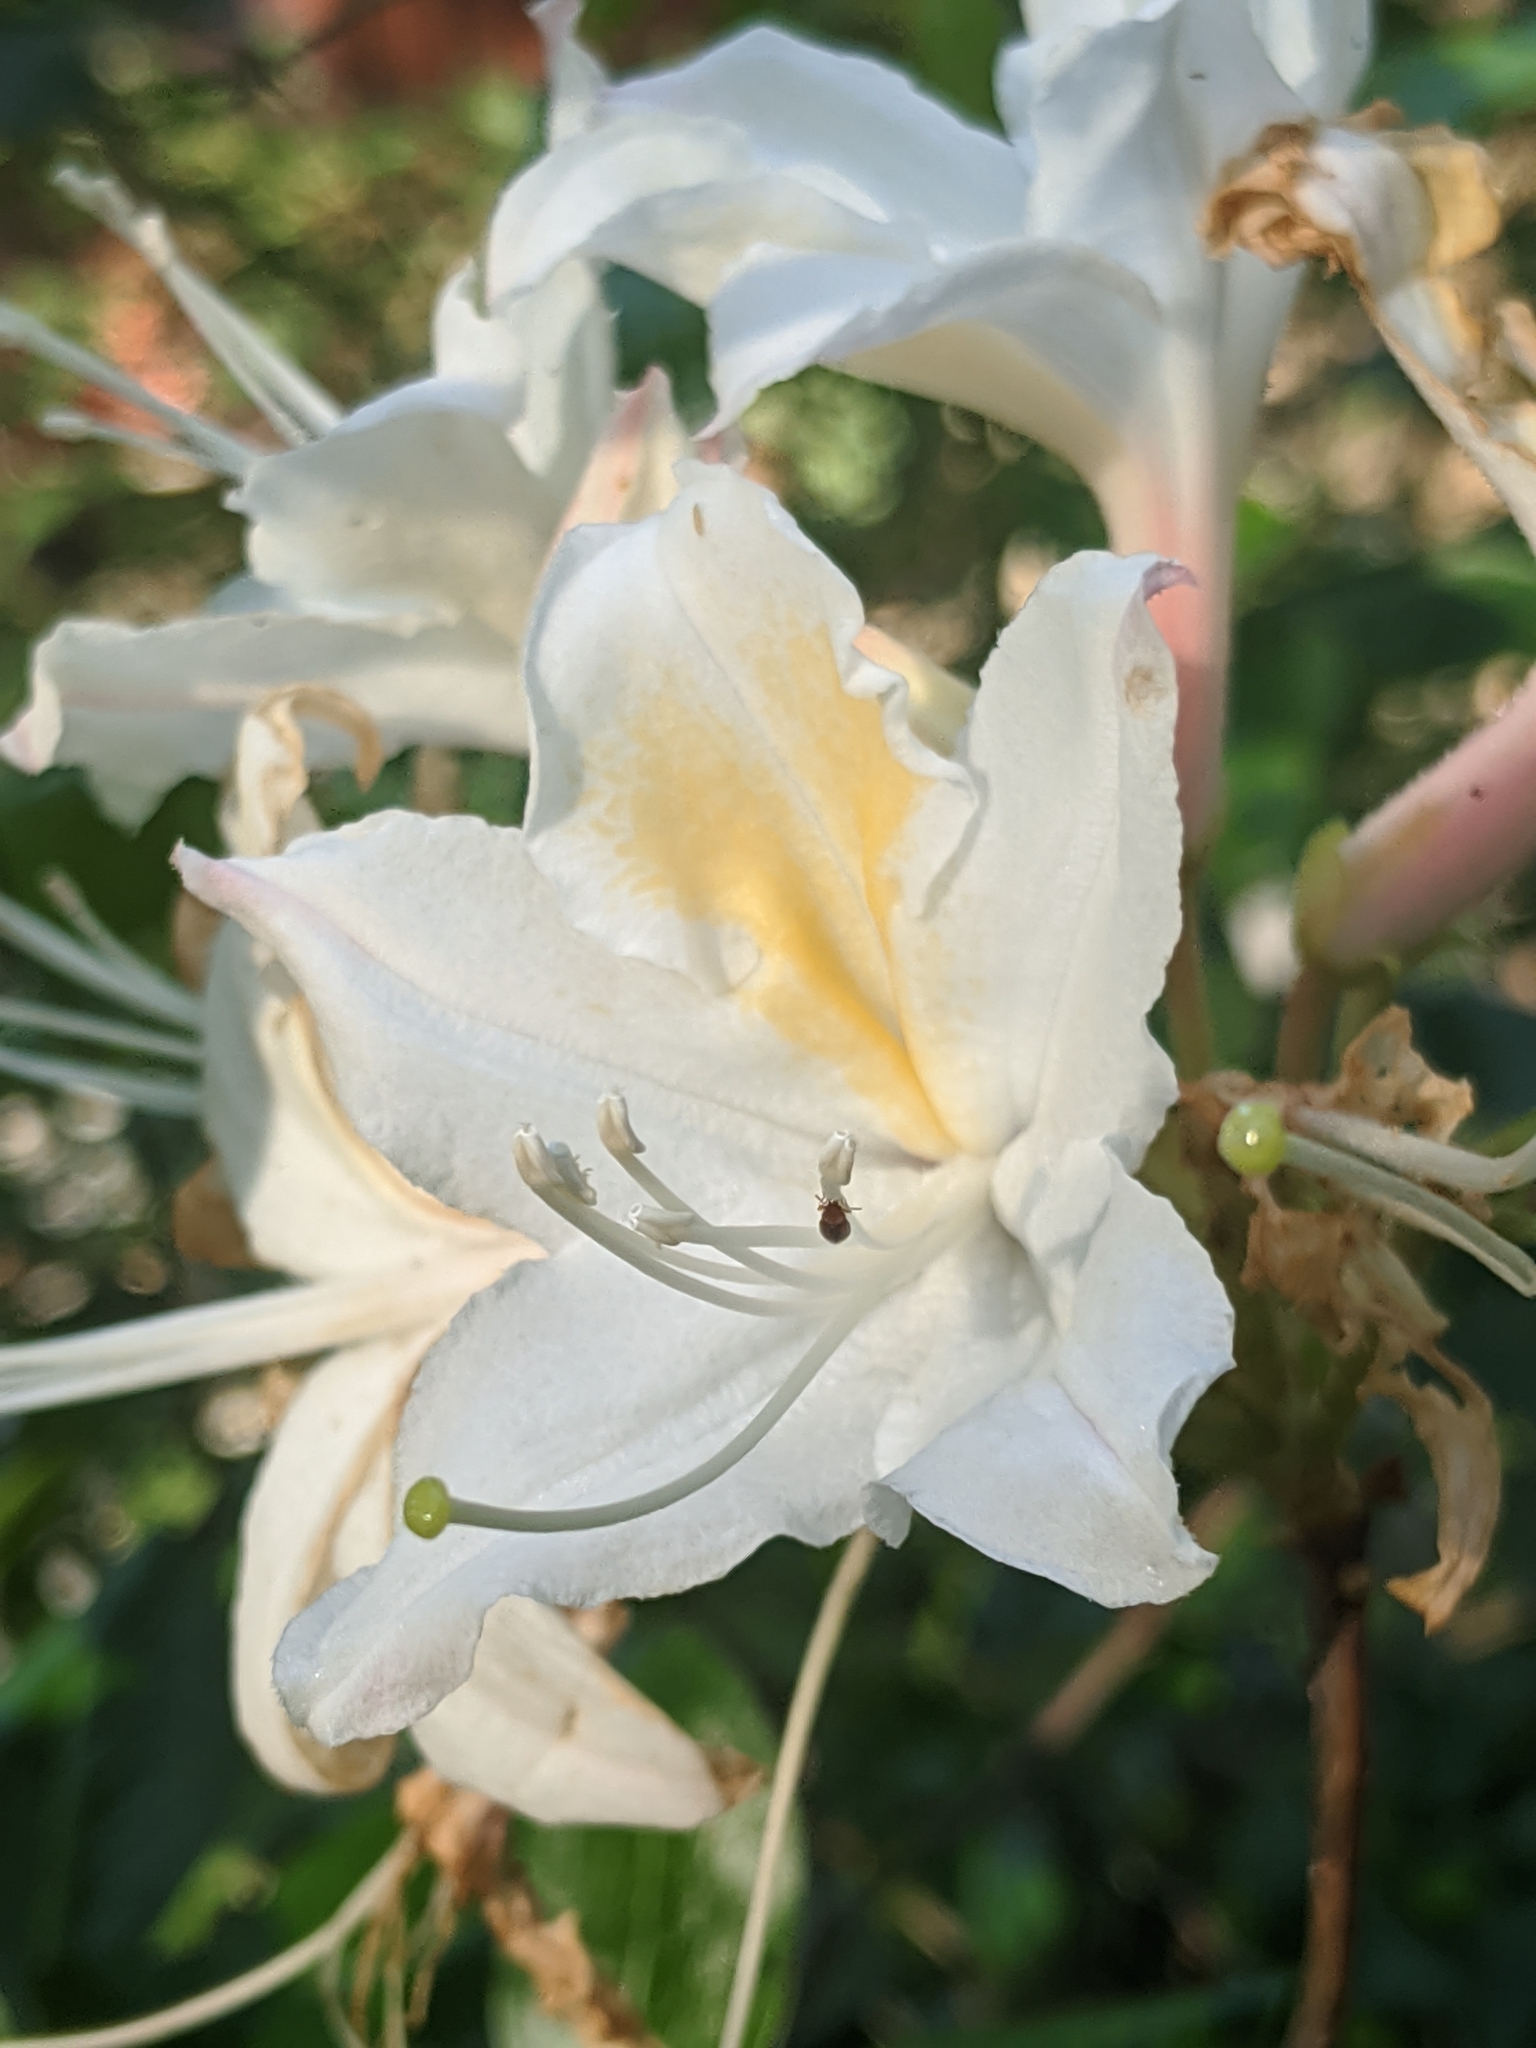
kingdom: Plantae
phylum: Tracheophyta
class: Magnoliopsida
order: Ericales
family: Ericaceae
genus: Rhododendron
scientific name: Rhododendron occidentale
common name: Western azalea
